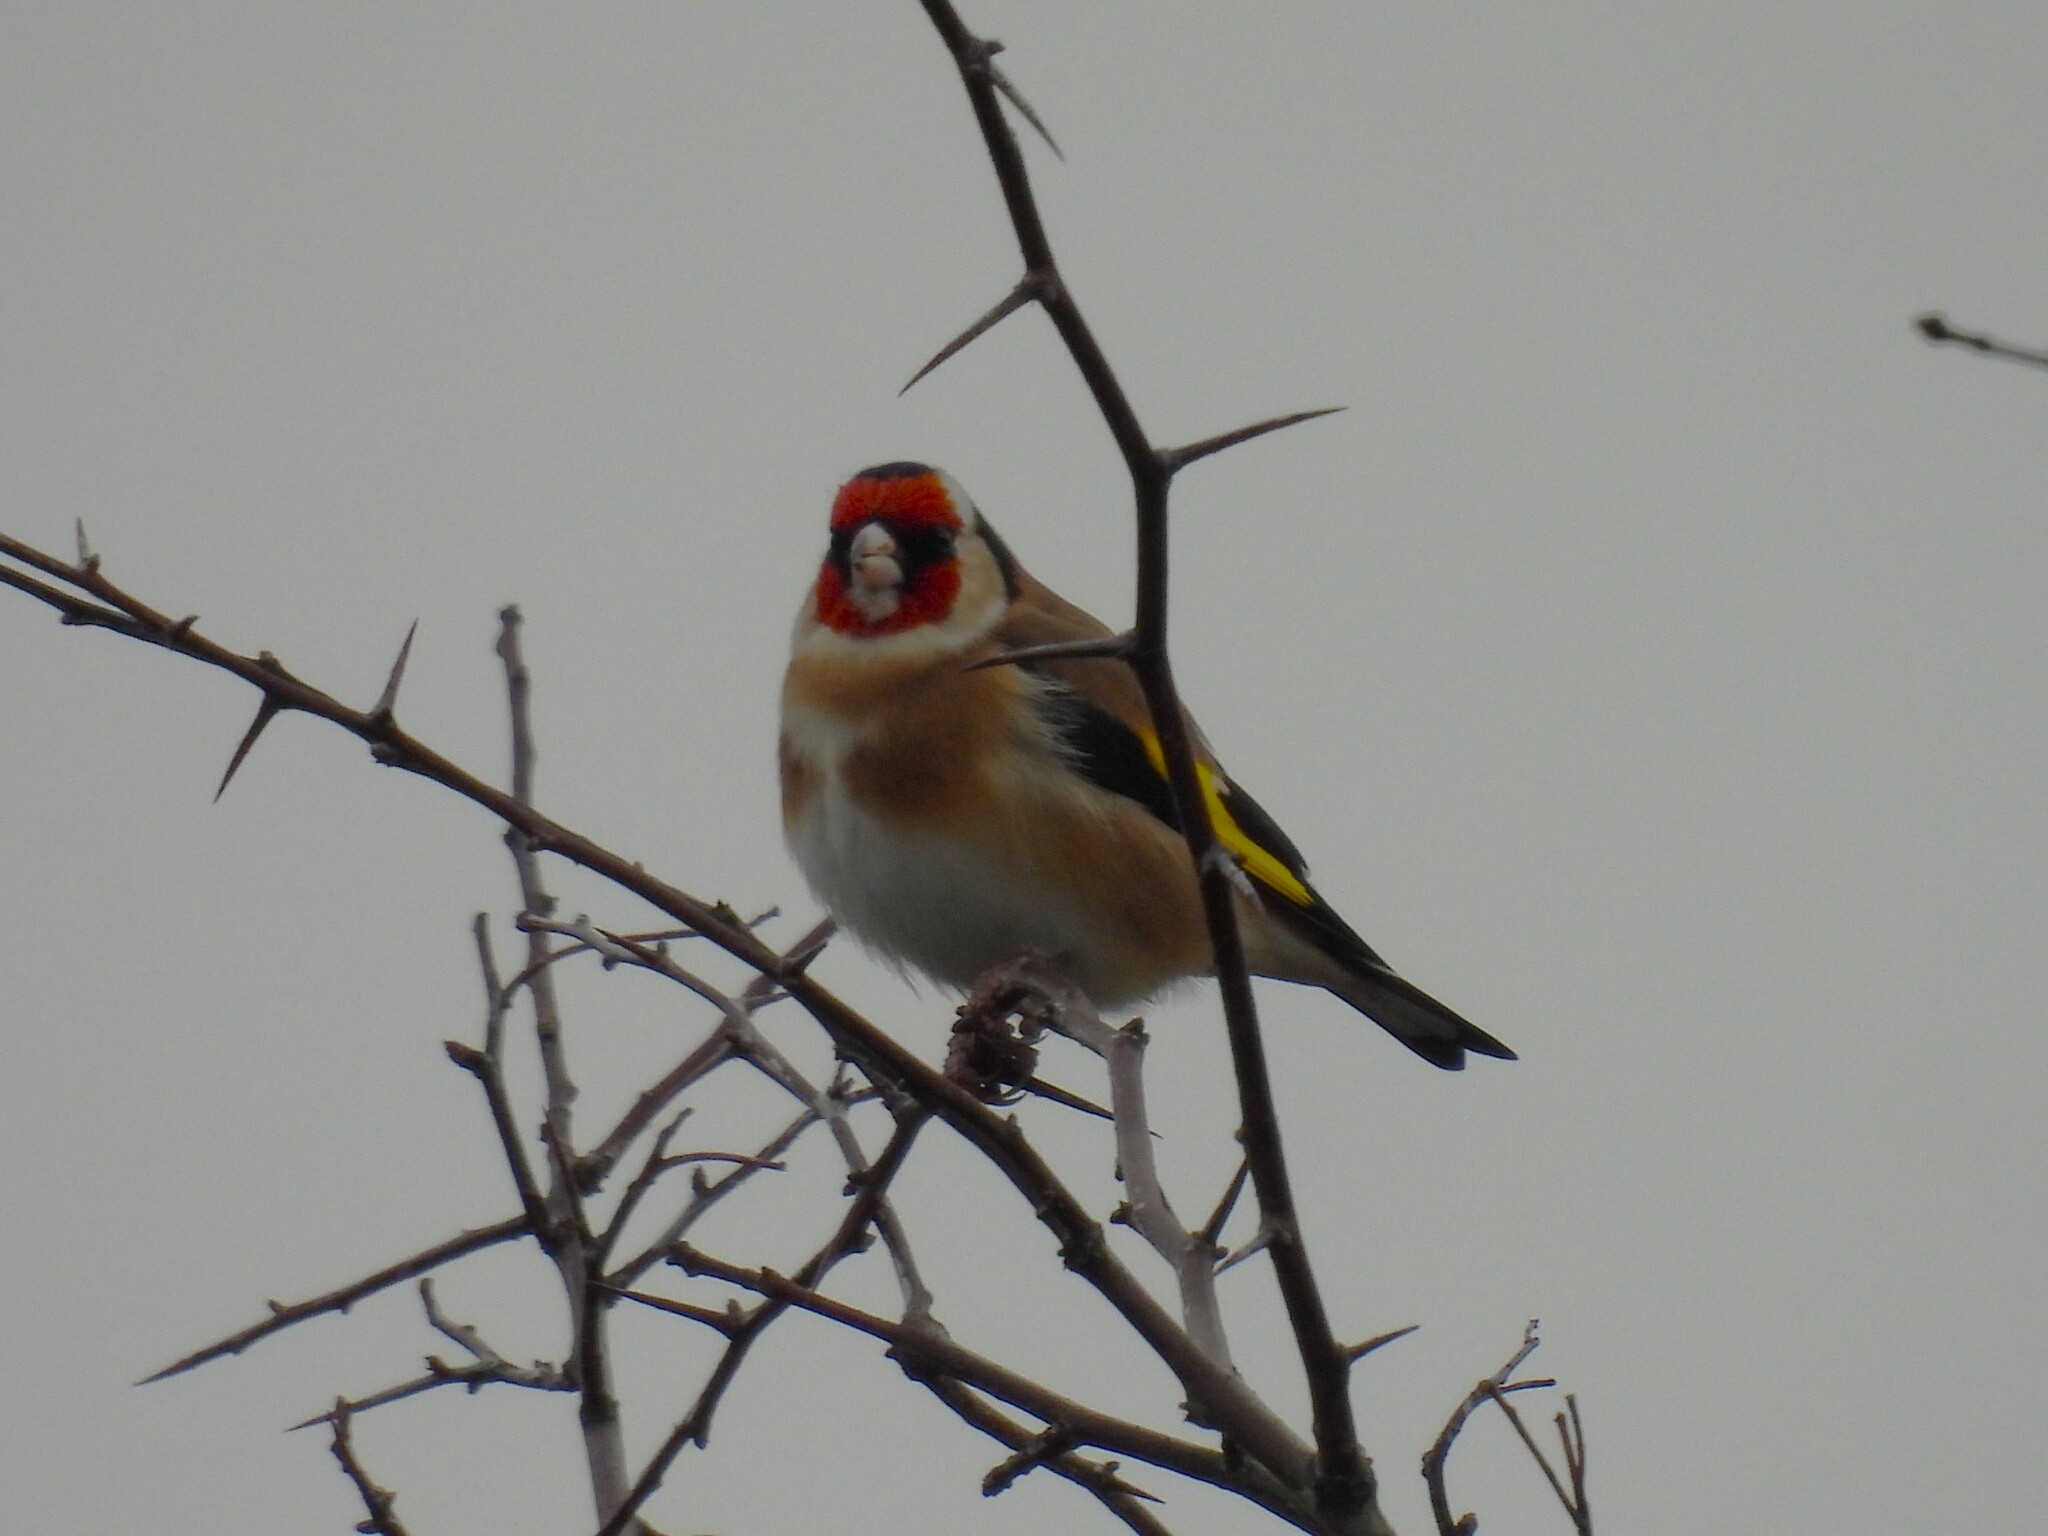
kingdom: Animalia
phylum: Chordata
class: Aves
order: Passeriformes
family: Fringillidae
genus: Carduelis
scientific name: Carduelis carduelis
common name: European goldfinch
